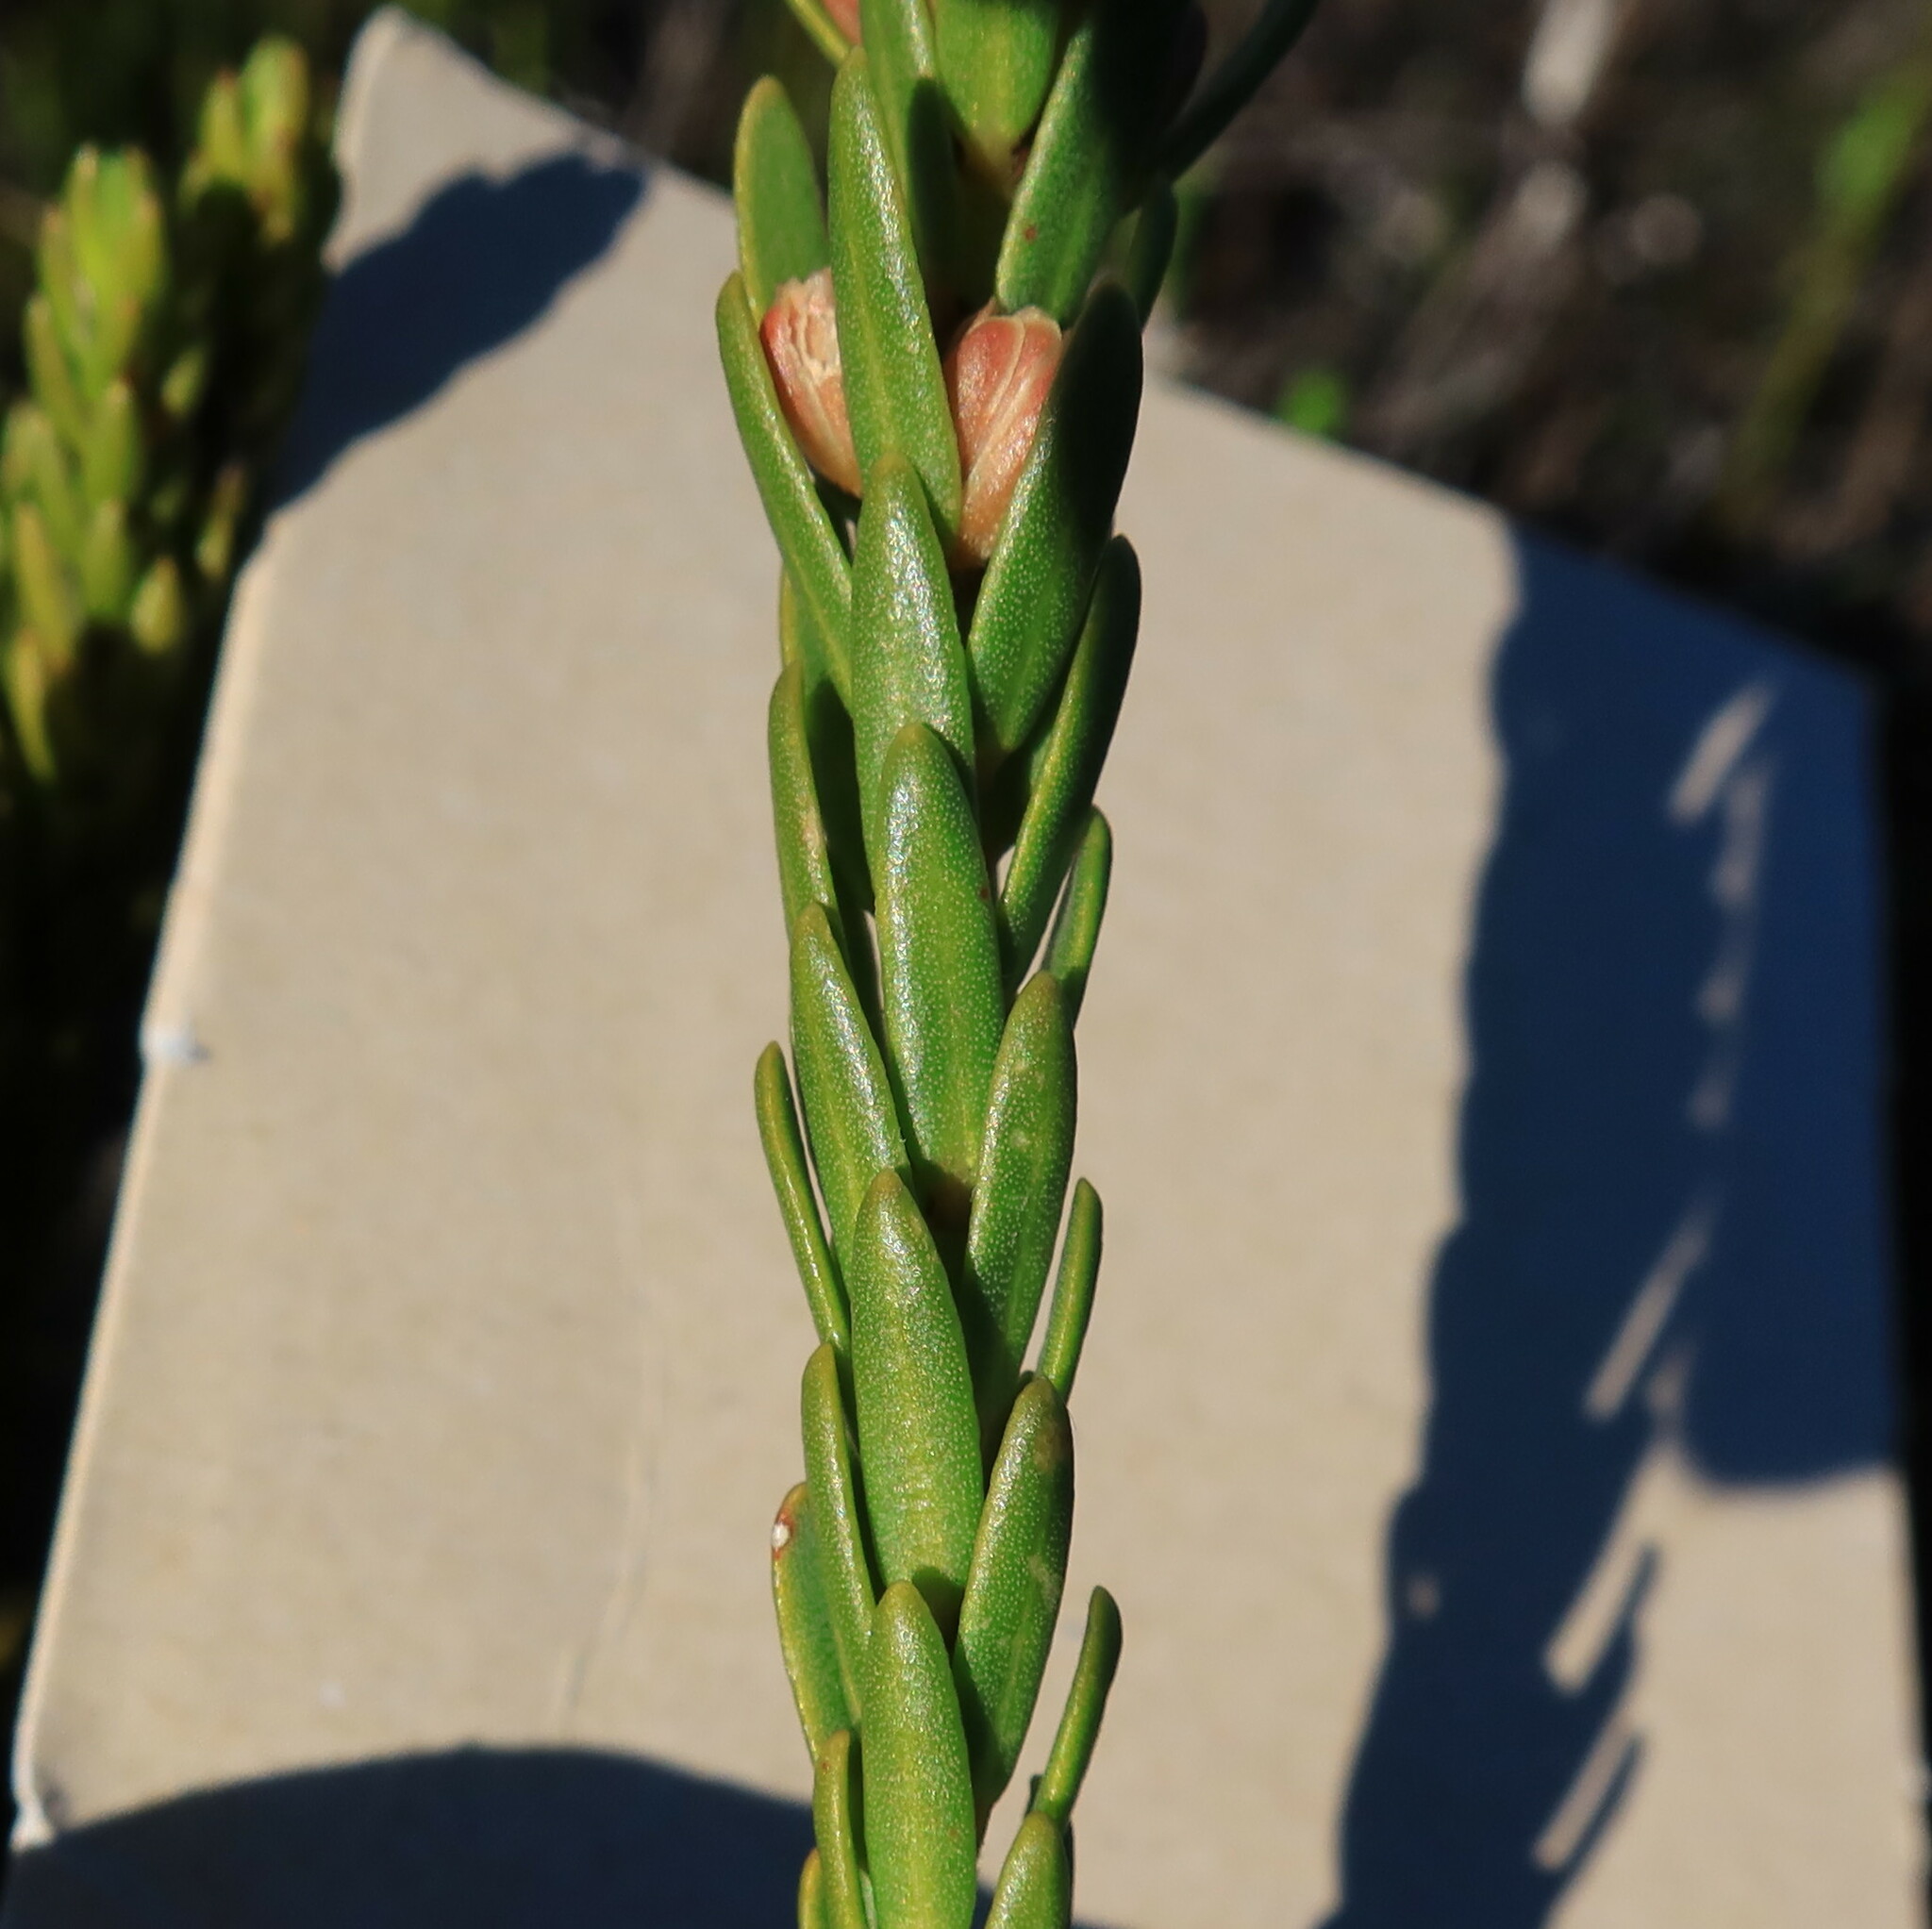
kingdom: Plantae
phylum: Tracheophyta
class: Magnoliopsida
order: Malpighiales
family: Peraceae
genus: Clutia
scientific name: Clutia ericoides
